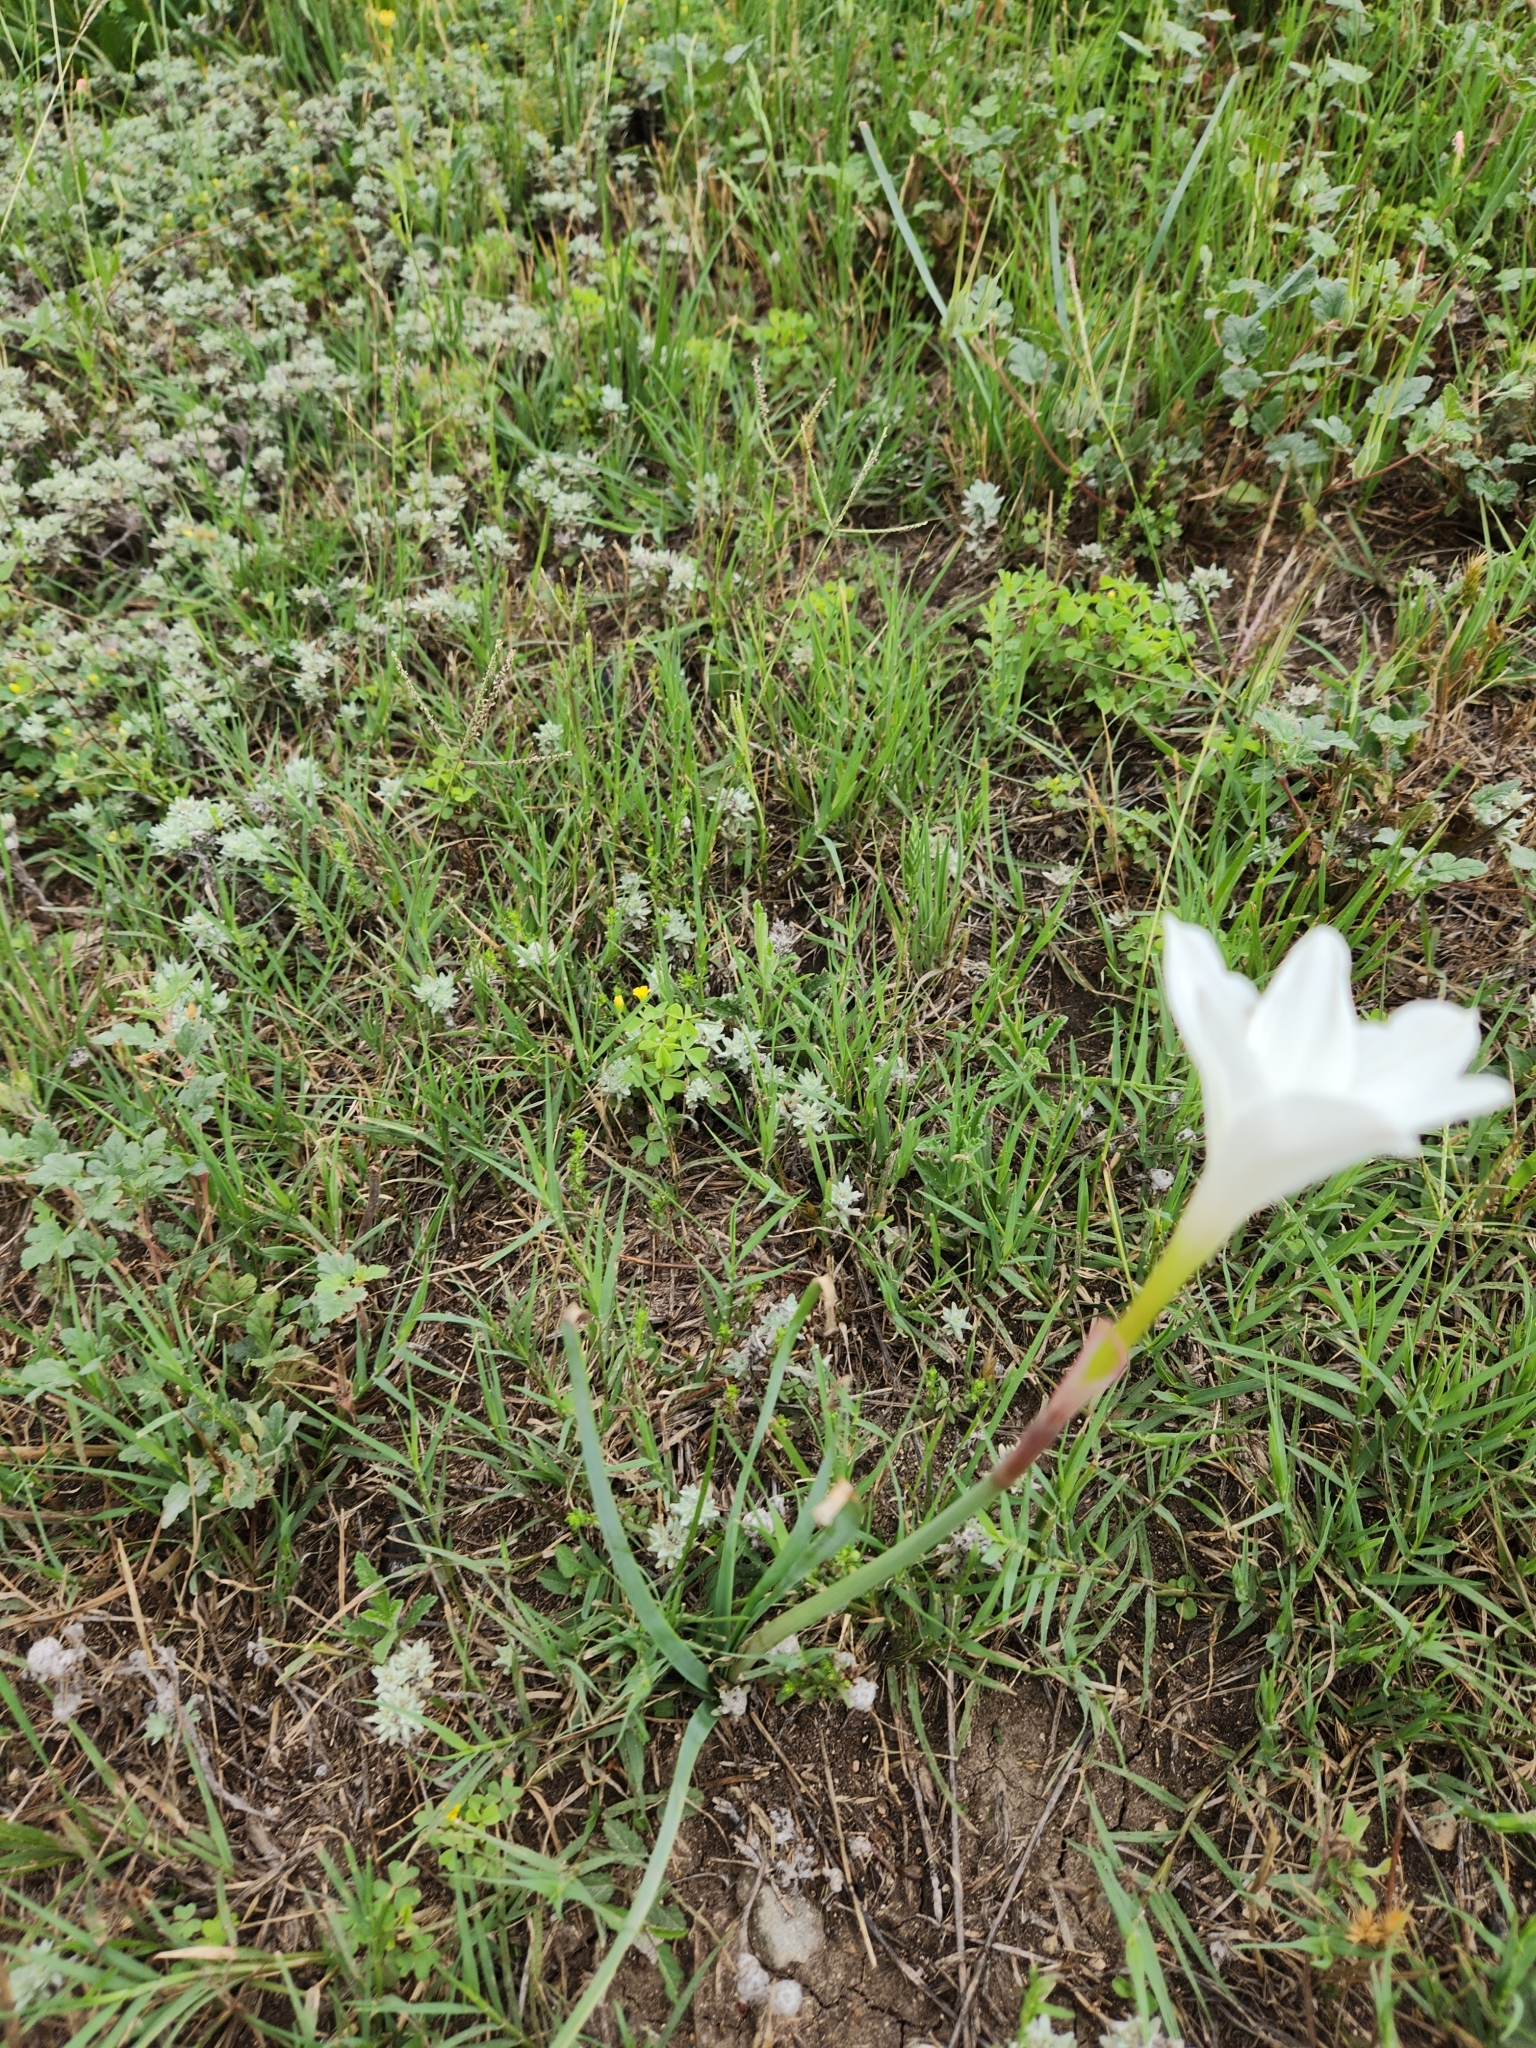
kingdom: Plantae
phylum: Tracheophyta
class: Liliopsida
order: Asparagales
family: Amaryllidaceae
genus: Zephyranthes
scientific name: Zephyranthes drummondii
